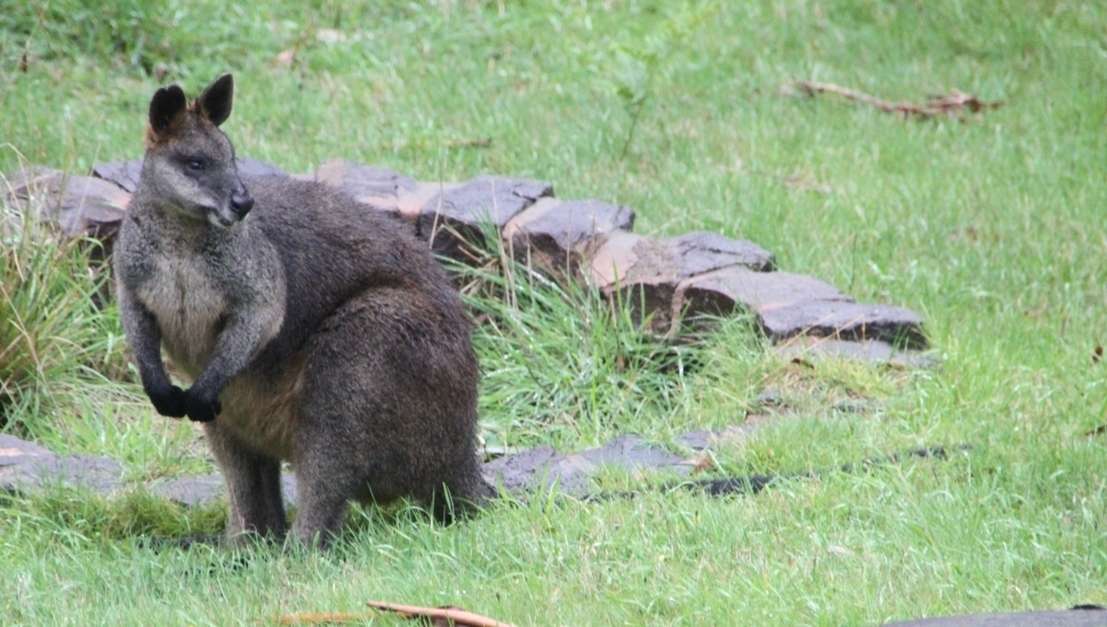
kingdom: Animalia
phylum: Chordata
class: Mammalia
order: Diprotodontia
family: Macropodidae
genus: Wallabia
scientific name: Wallabia bicolor
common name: Swamp wallaby
